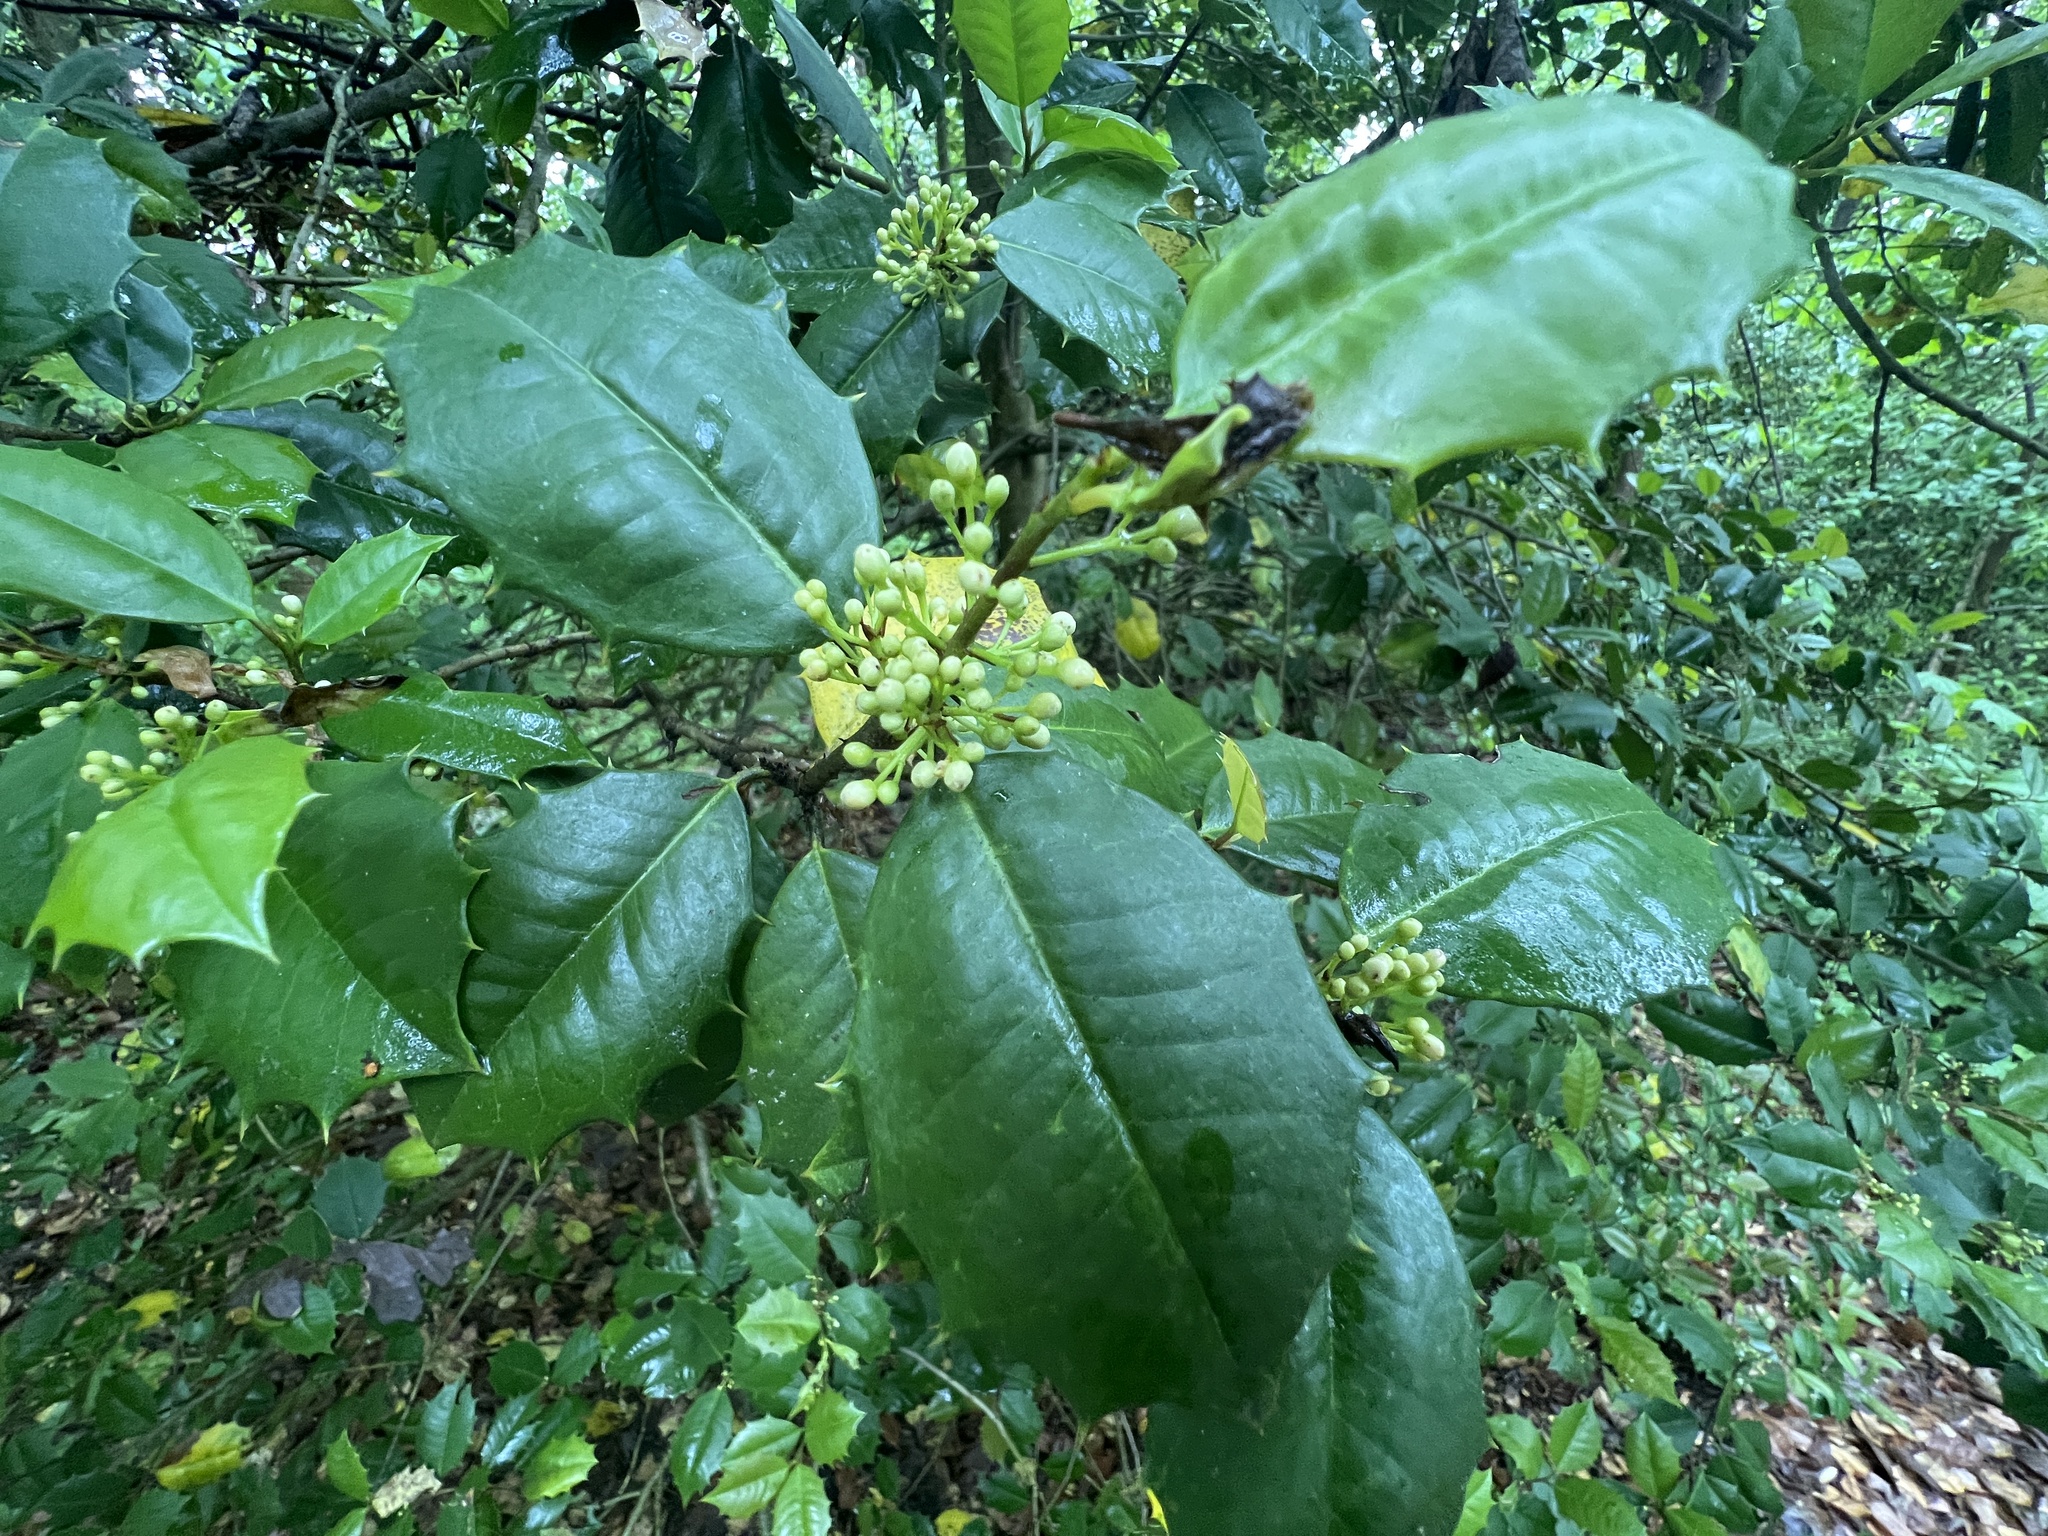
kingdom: Plantae
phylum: Tracheophyta
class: Magnoliopsida
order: Aquifoliales
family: Aquifoliaceae
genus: Ilex
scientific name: Ilex opaca
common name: American holly
